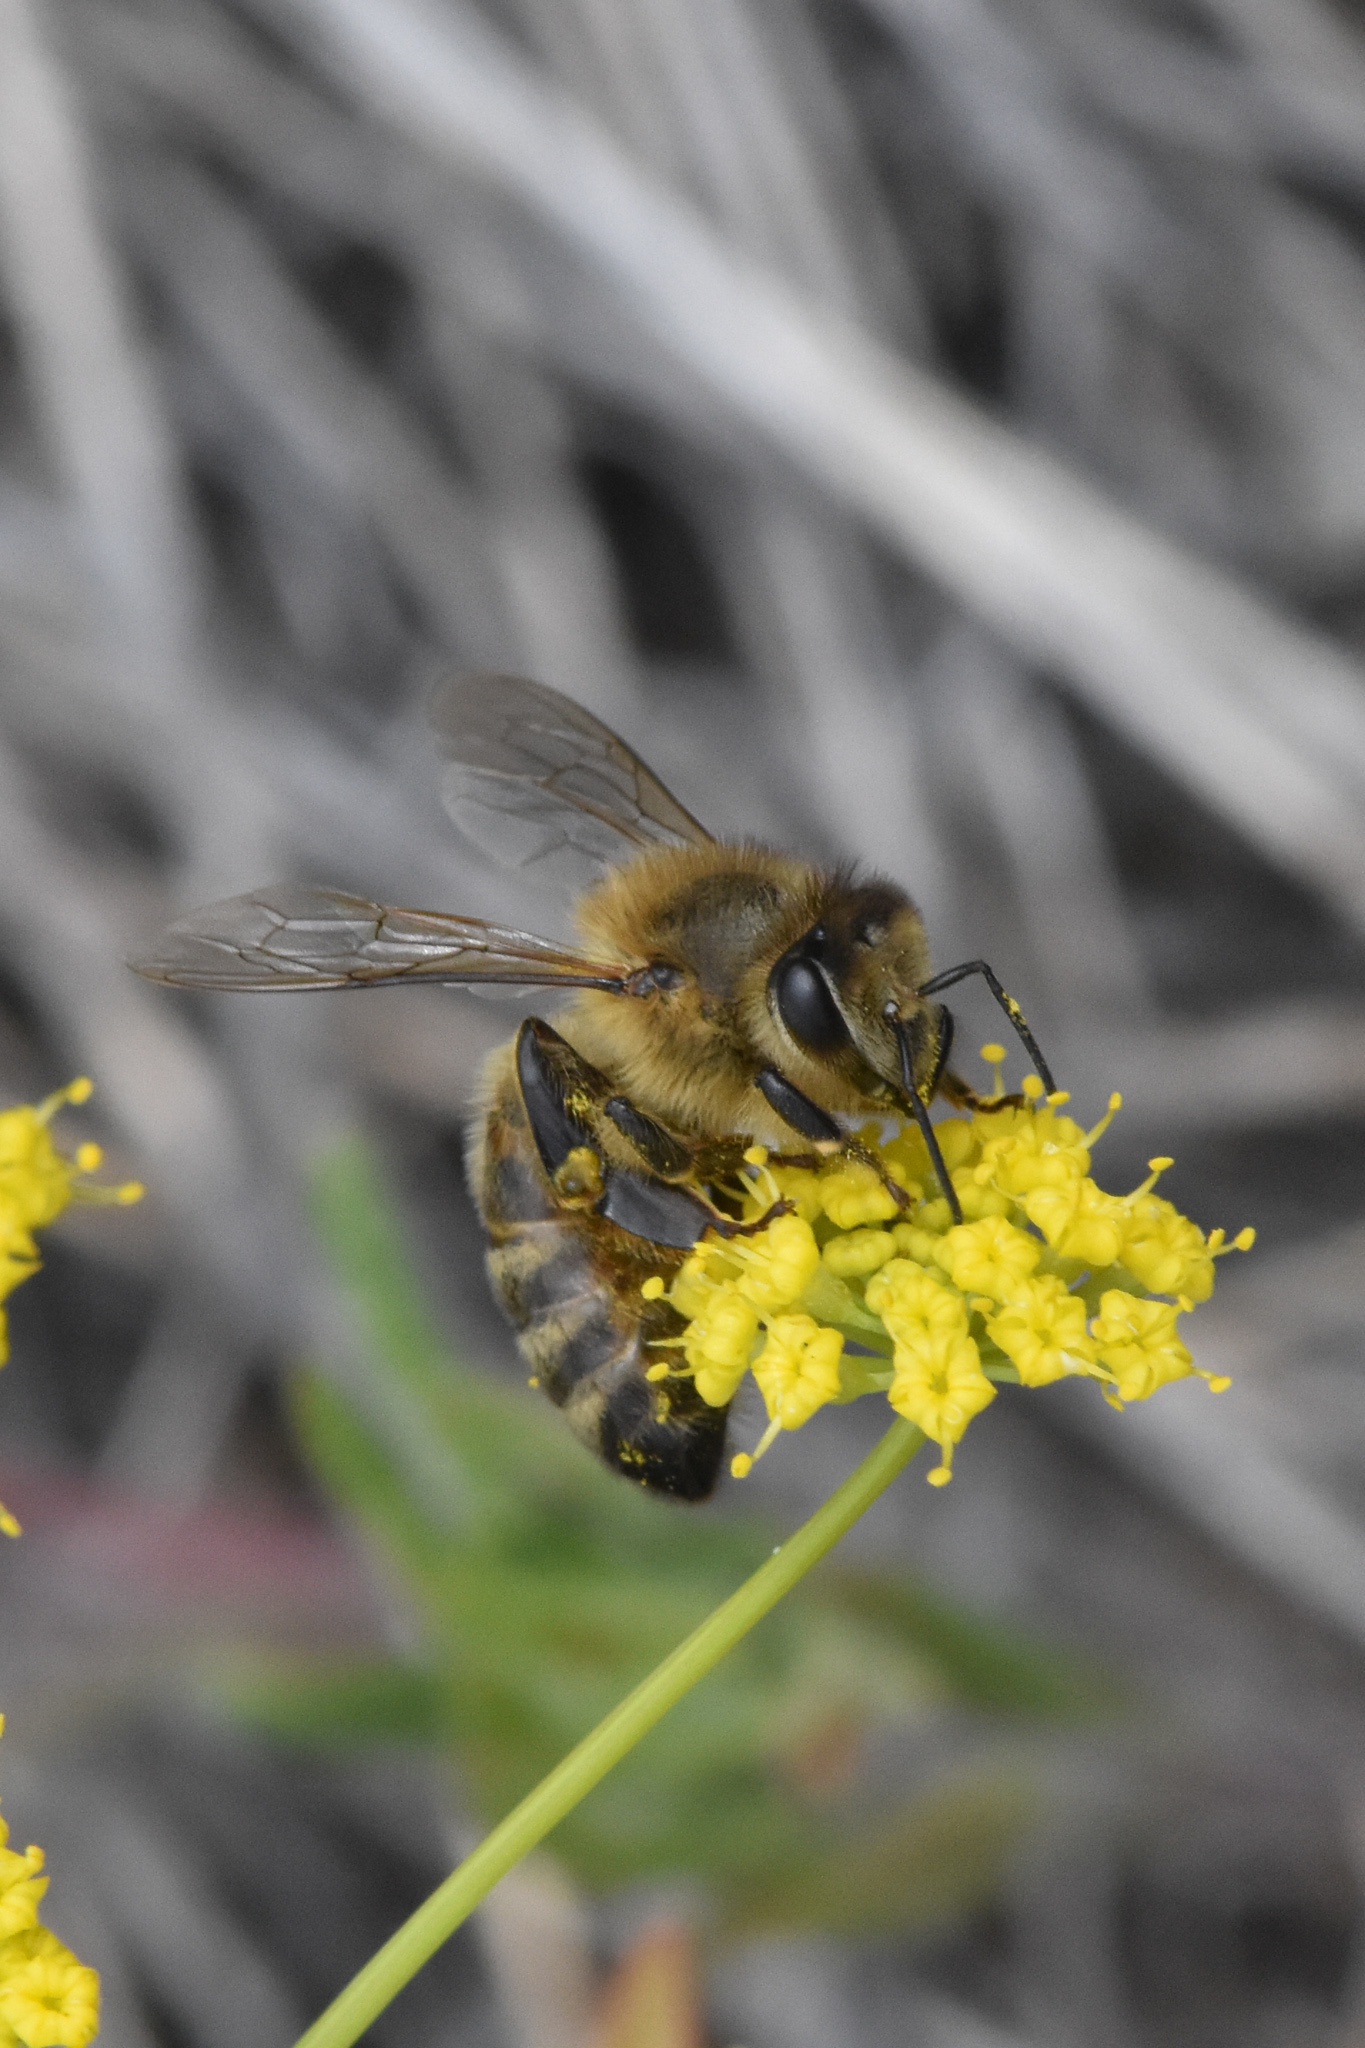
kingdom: Animalia
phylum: Arthropoda
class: Insecta
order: Hymenoptera
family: Apidae
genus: Apis
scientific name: Apis mellifera
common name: Honey bee
